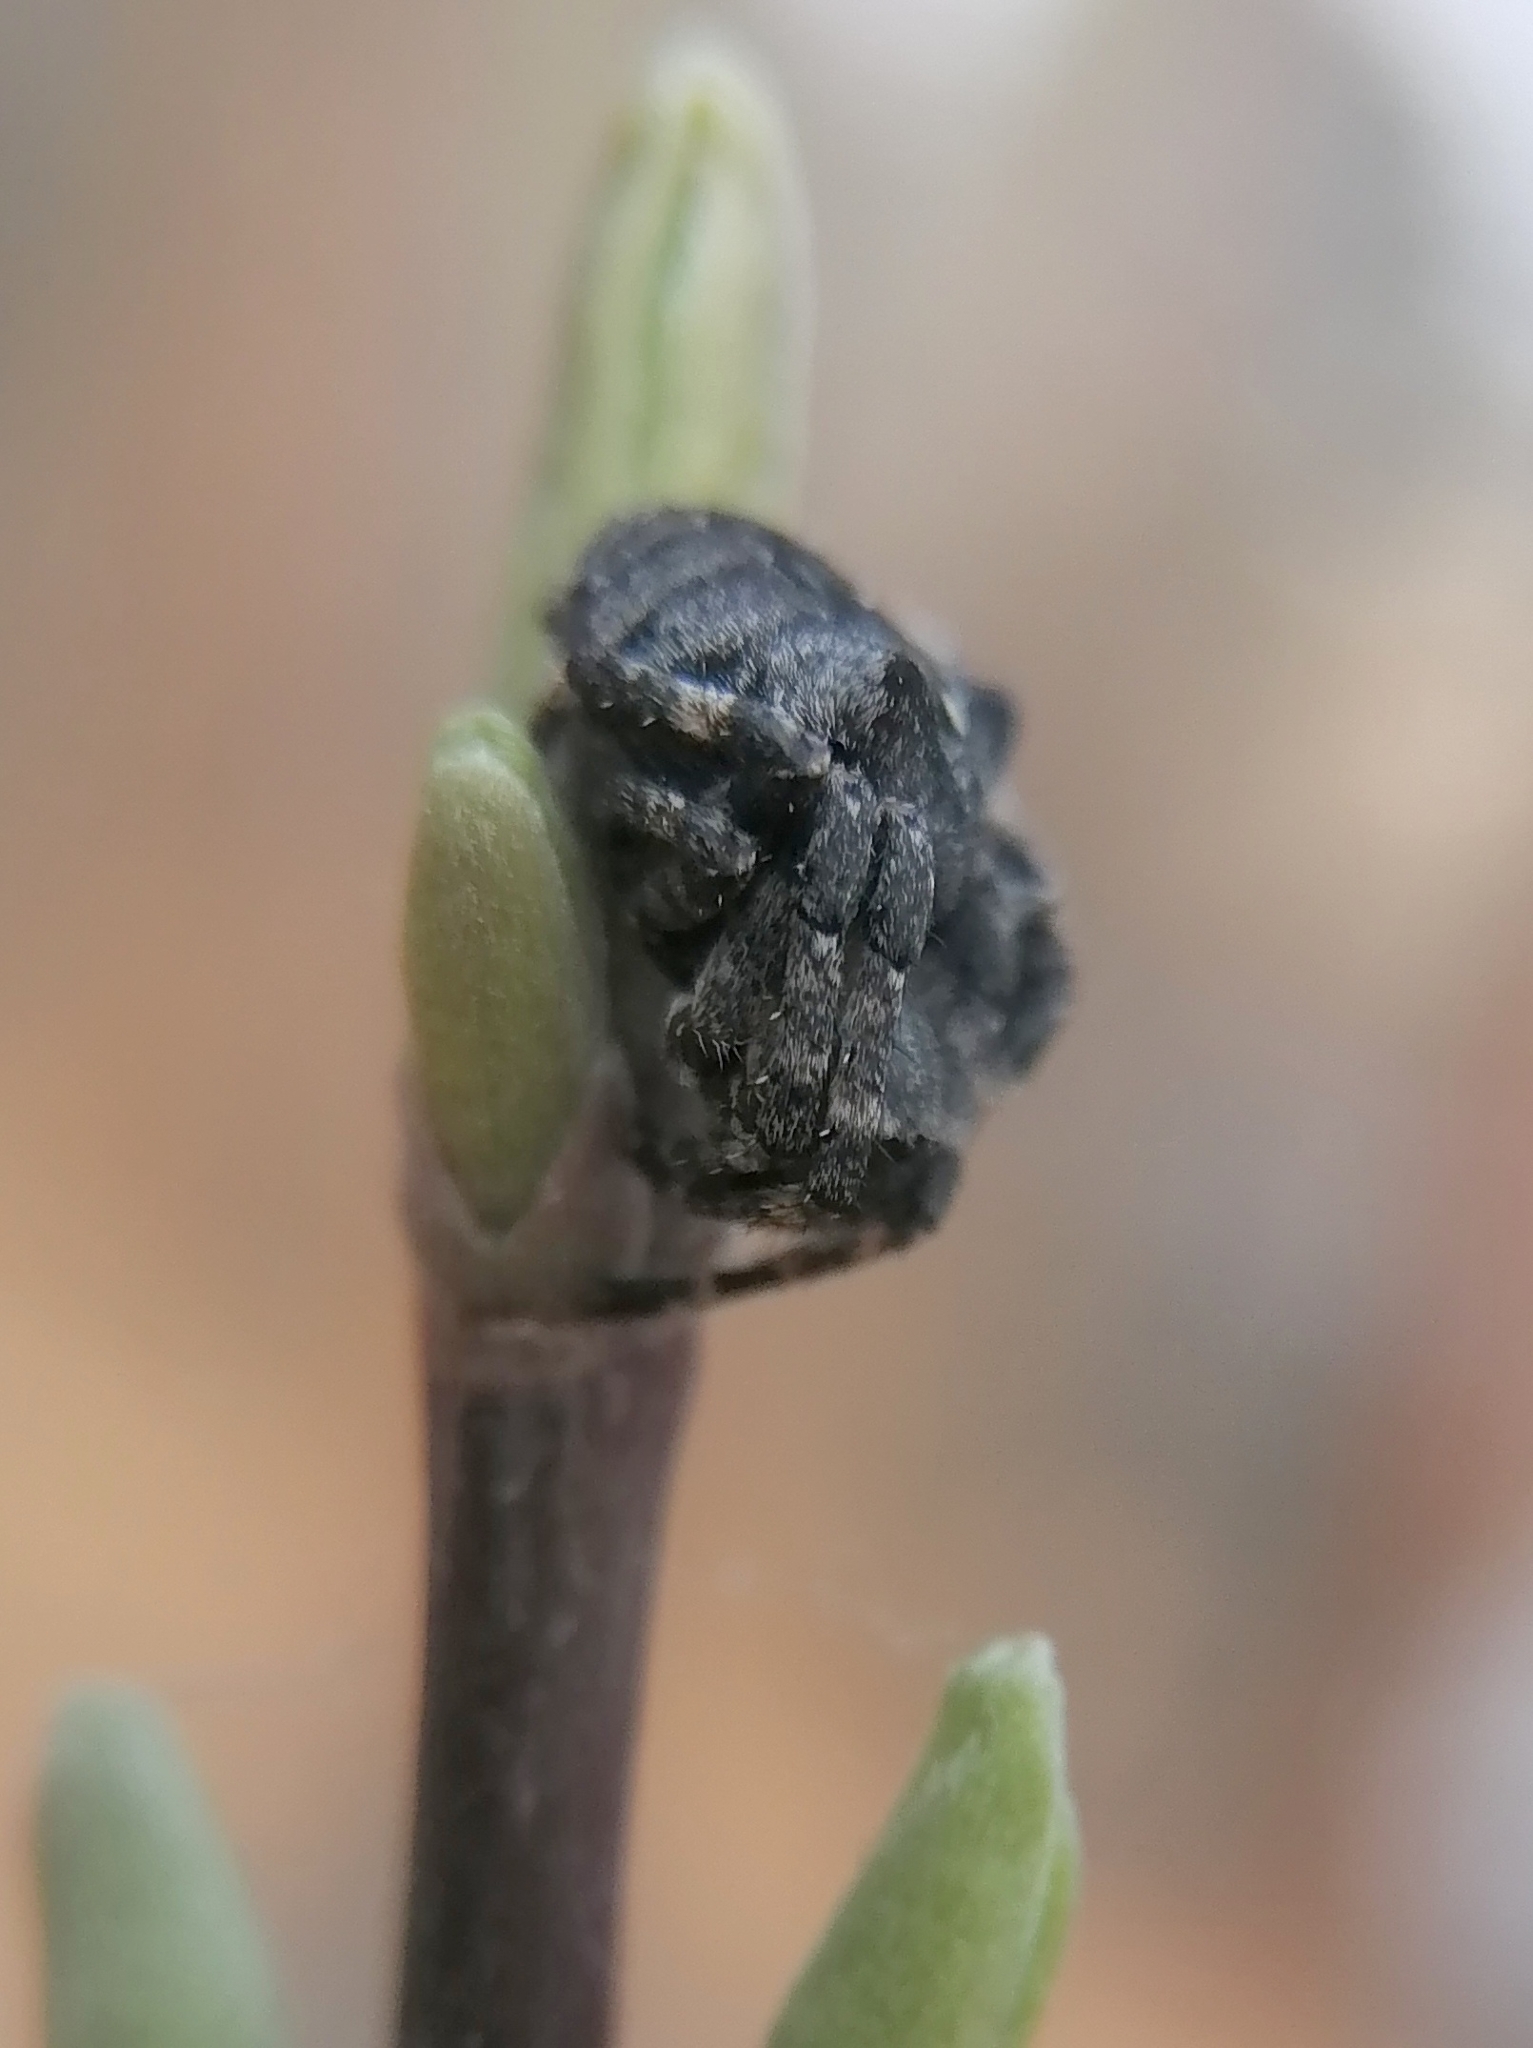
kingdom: Animalia
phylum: Arthropoda
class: Arachnida
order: Araneae
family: Araneidae
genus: Araneus
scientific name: Araneus angulatus
